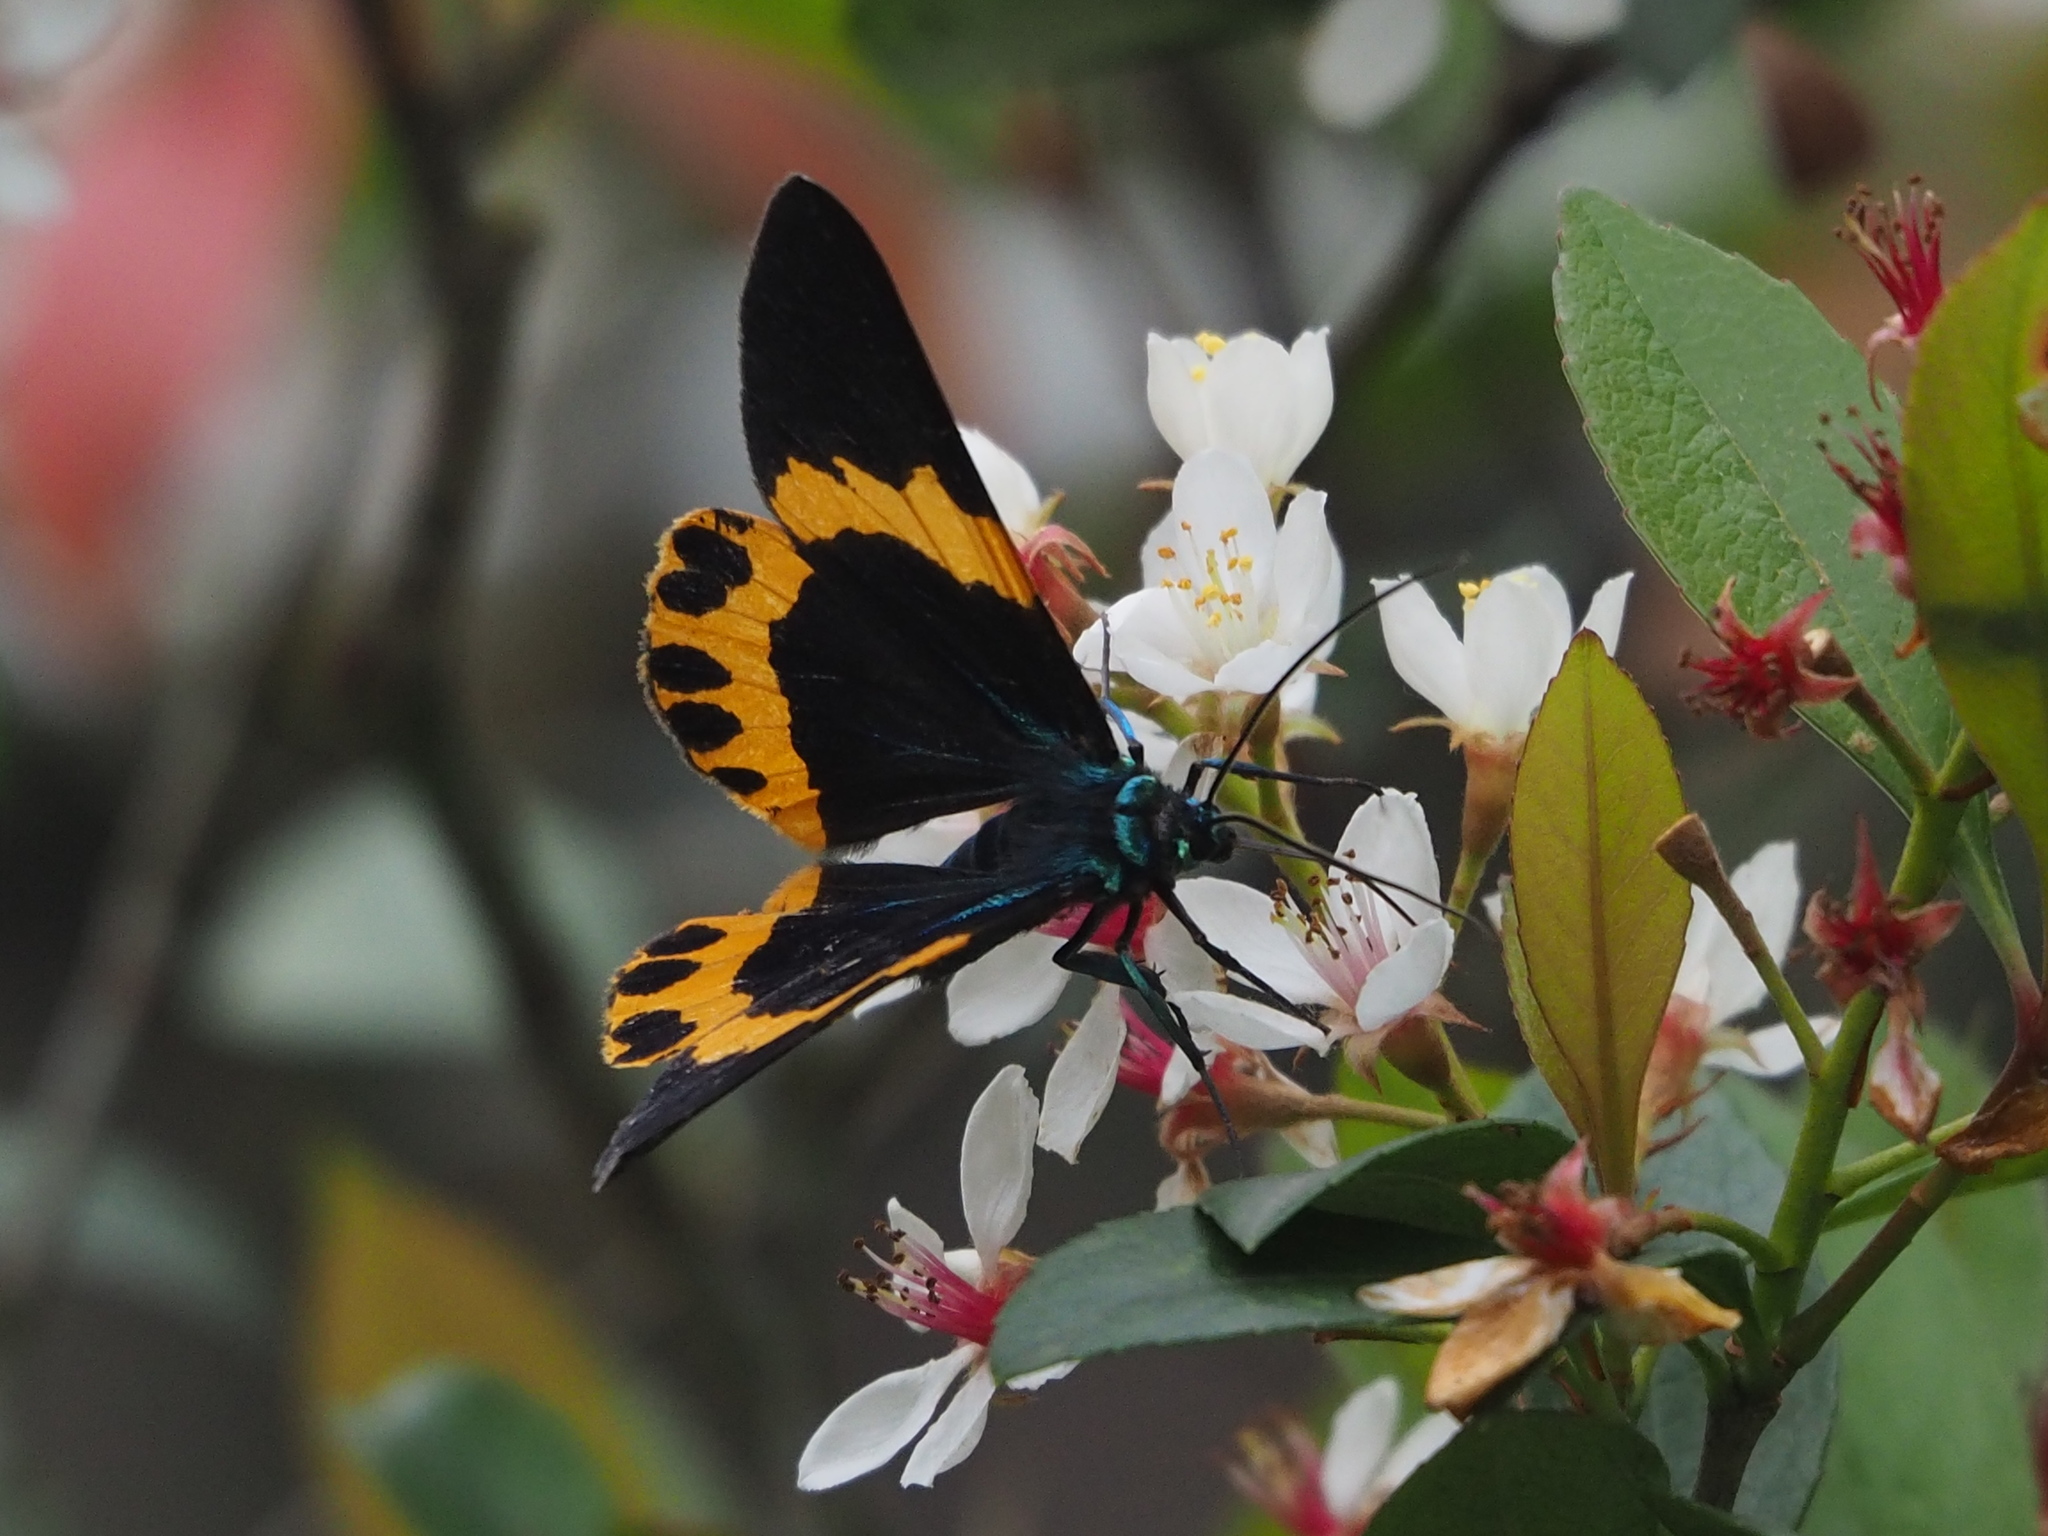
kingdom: Animalia
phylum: Arthropoda
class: Insecta
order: Lepidoptera
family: Geometridae
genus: Milionia
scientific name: Milionia basalis
